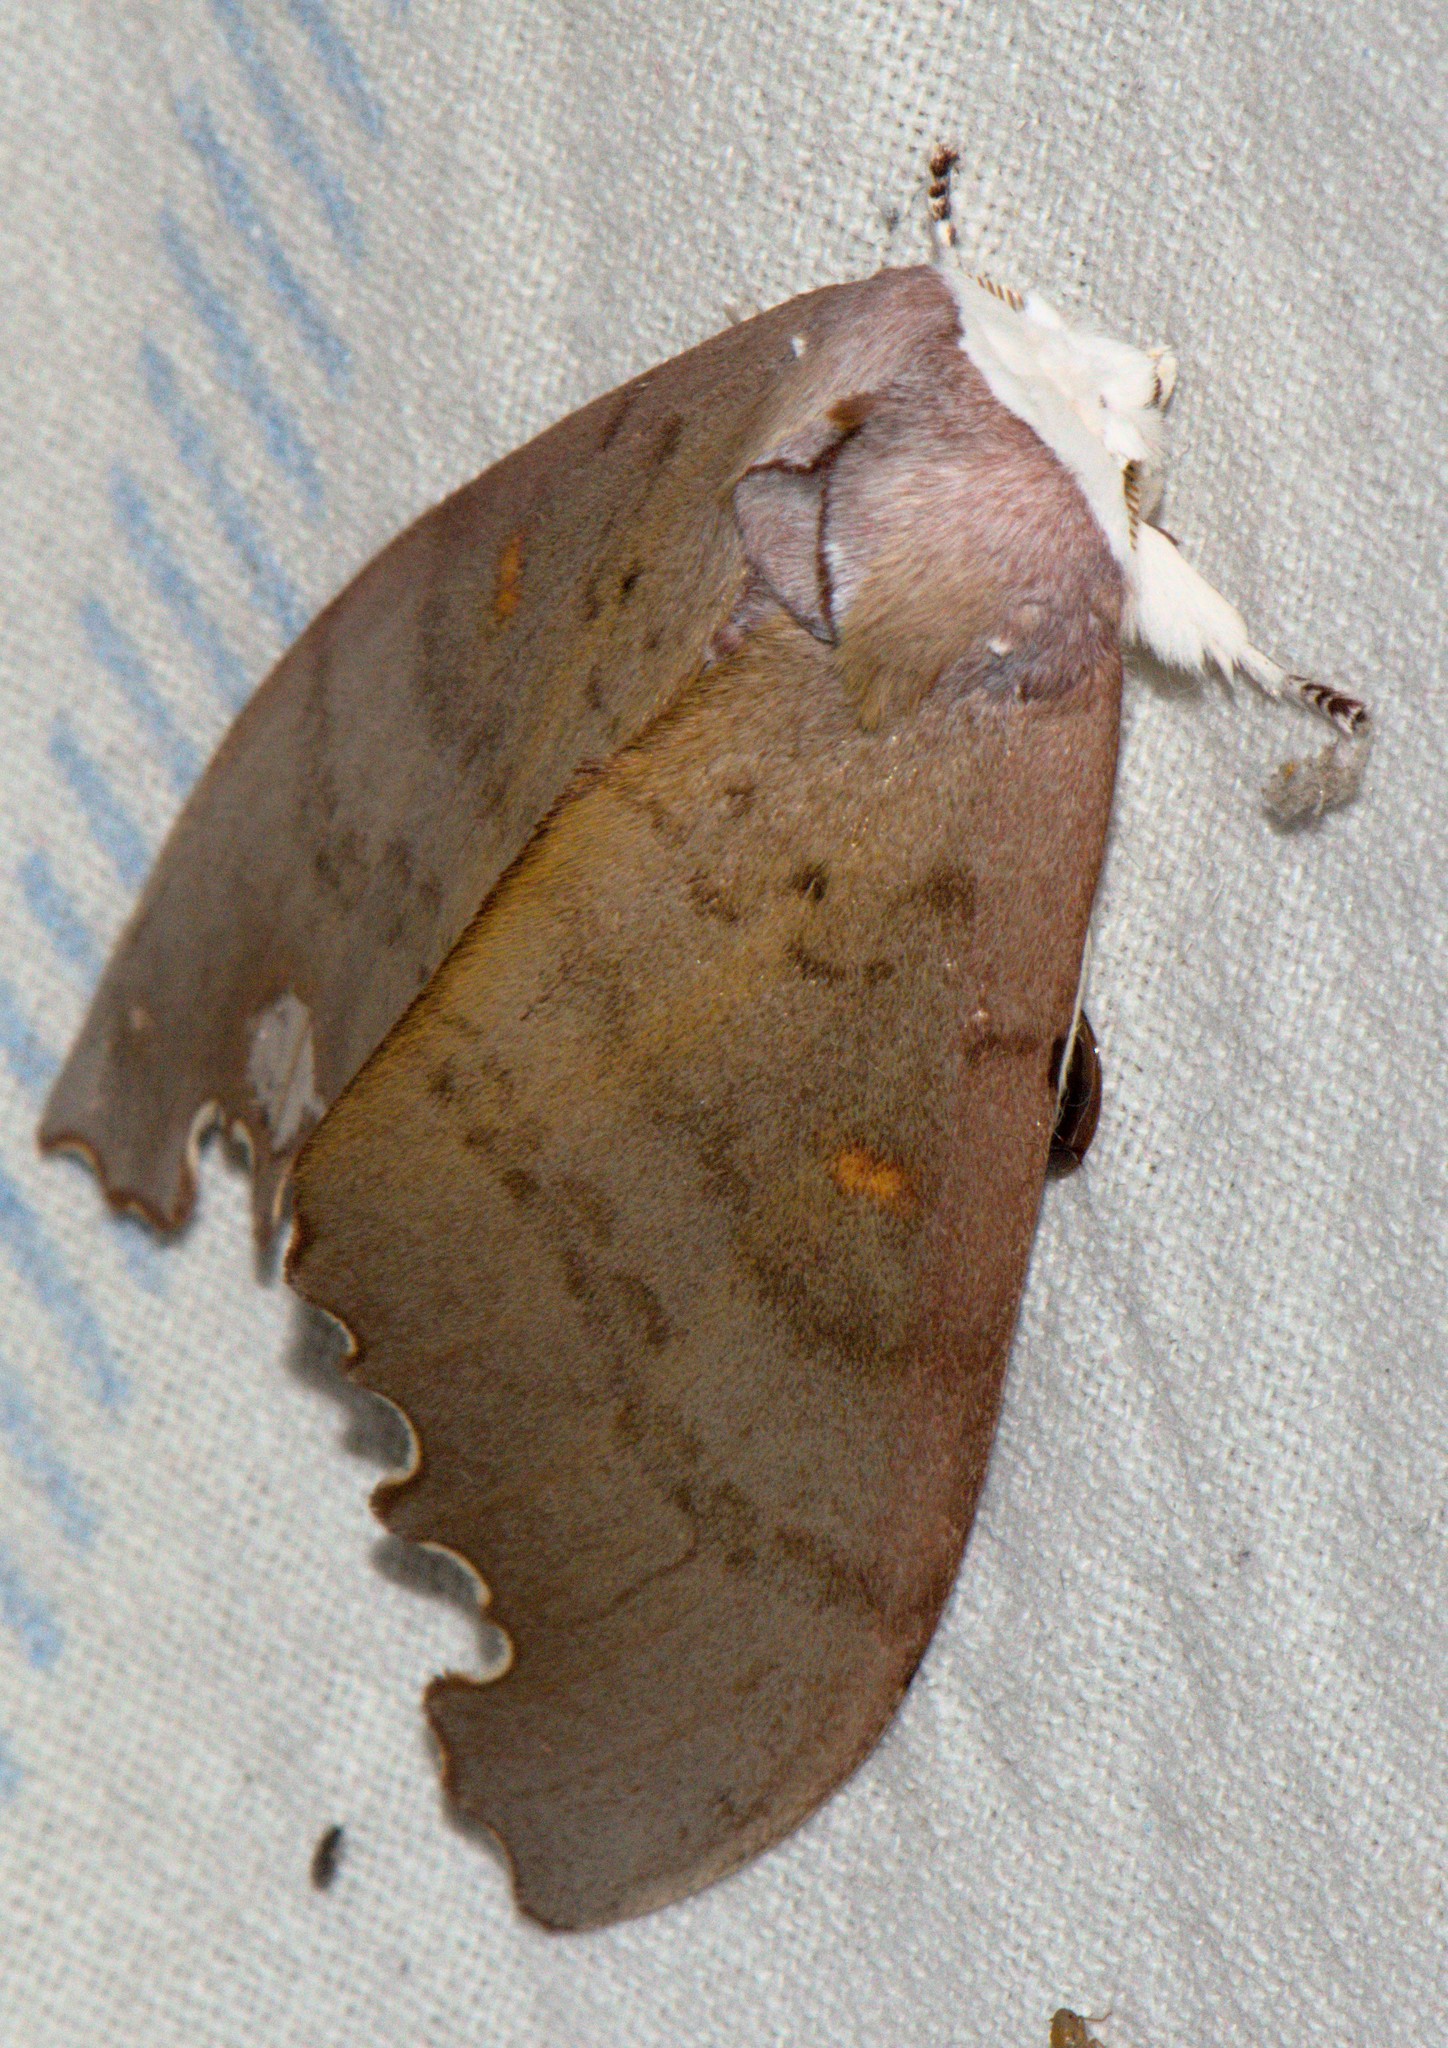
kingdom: Animalia
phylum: Arthropoda
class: Insecta
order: Lepidoptera
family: Notodontidae
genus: Euhampsonia
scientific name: Euhampsonia niveiceps
